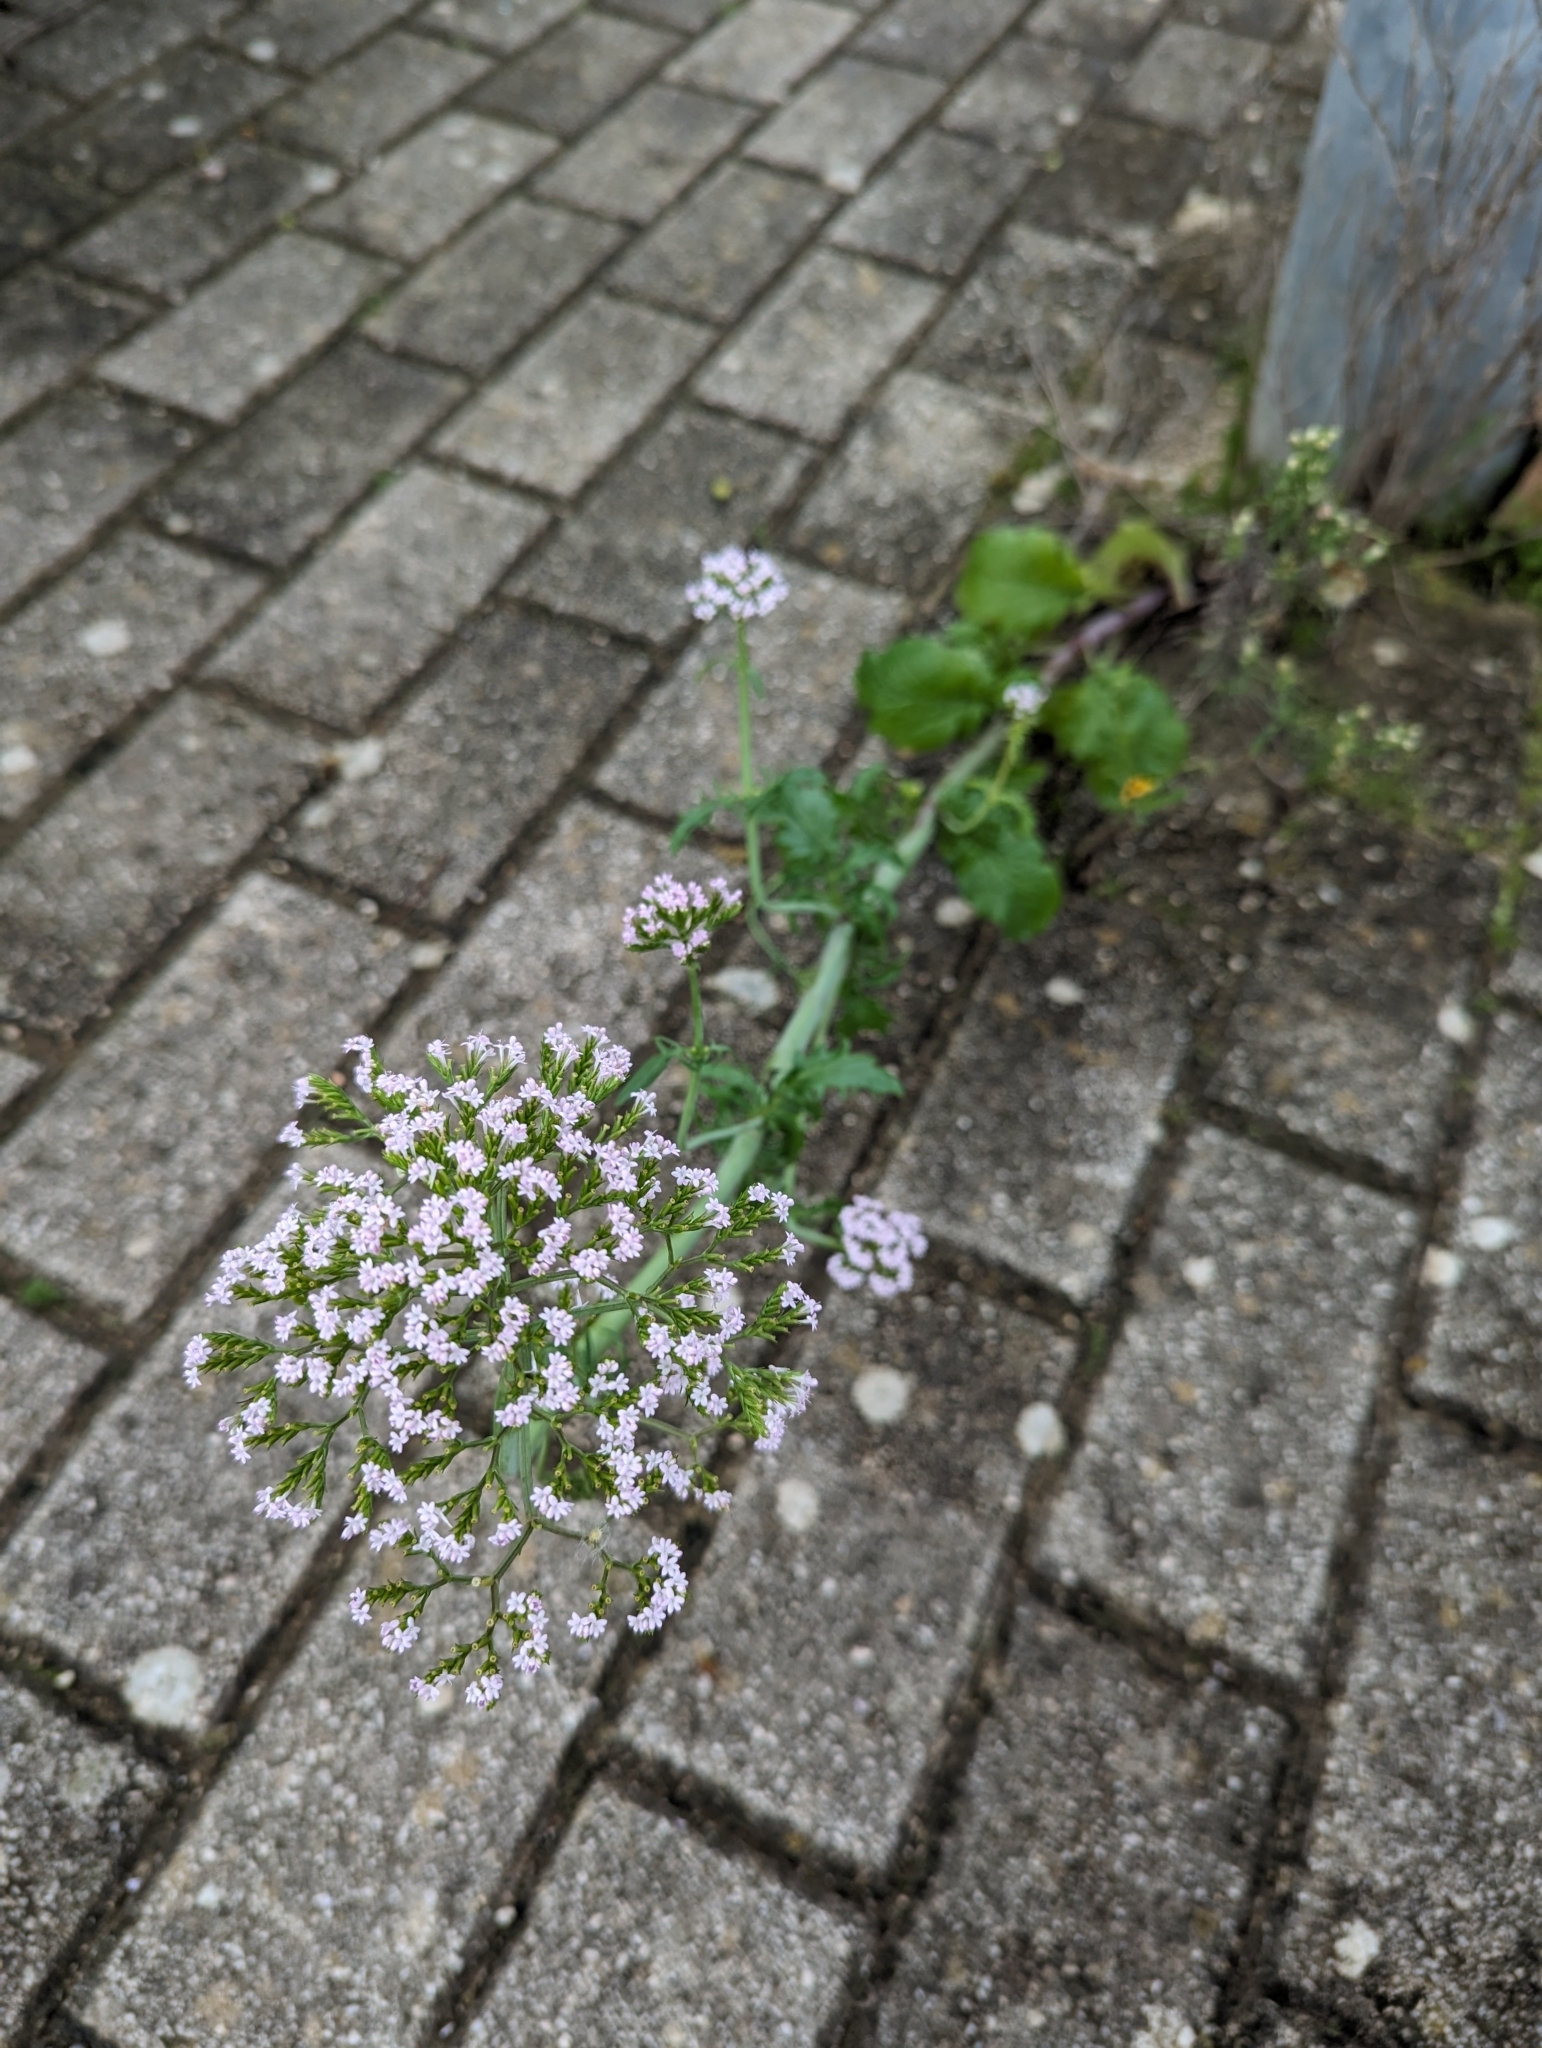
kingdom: Plantae
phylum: Tracheophyta
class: Magnoliopsida
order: Dipsacales
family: Caprifoliaceae
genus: Centranthus
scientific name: Centranthus calcitrapae
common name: Annual valerian
